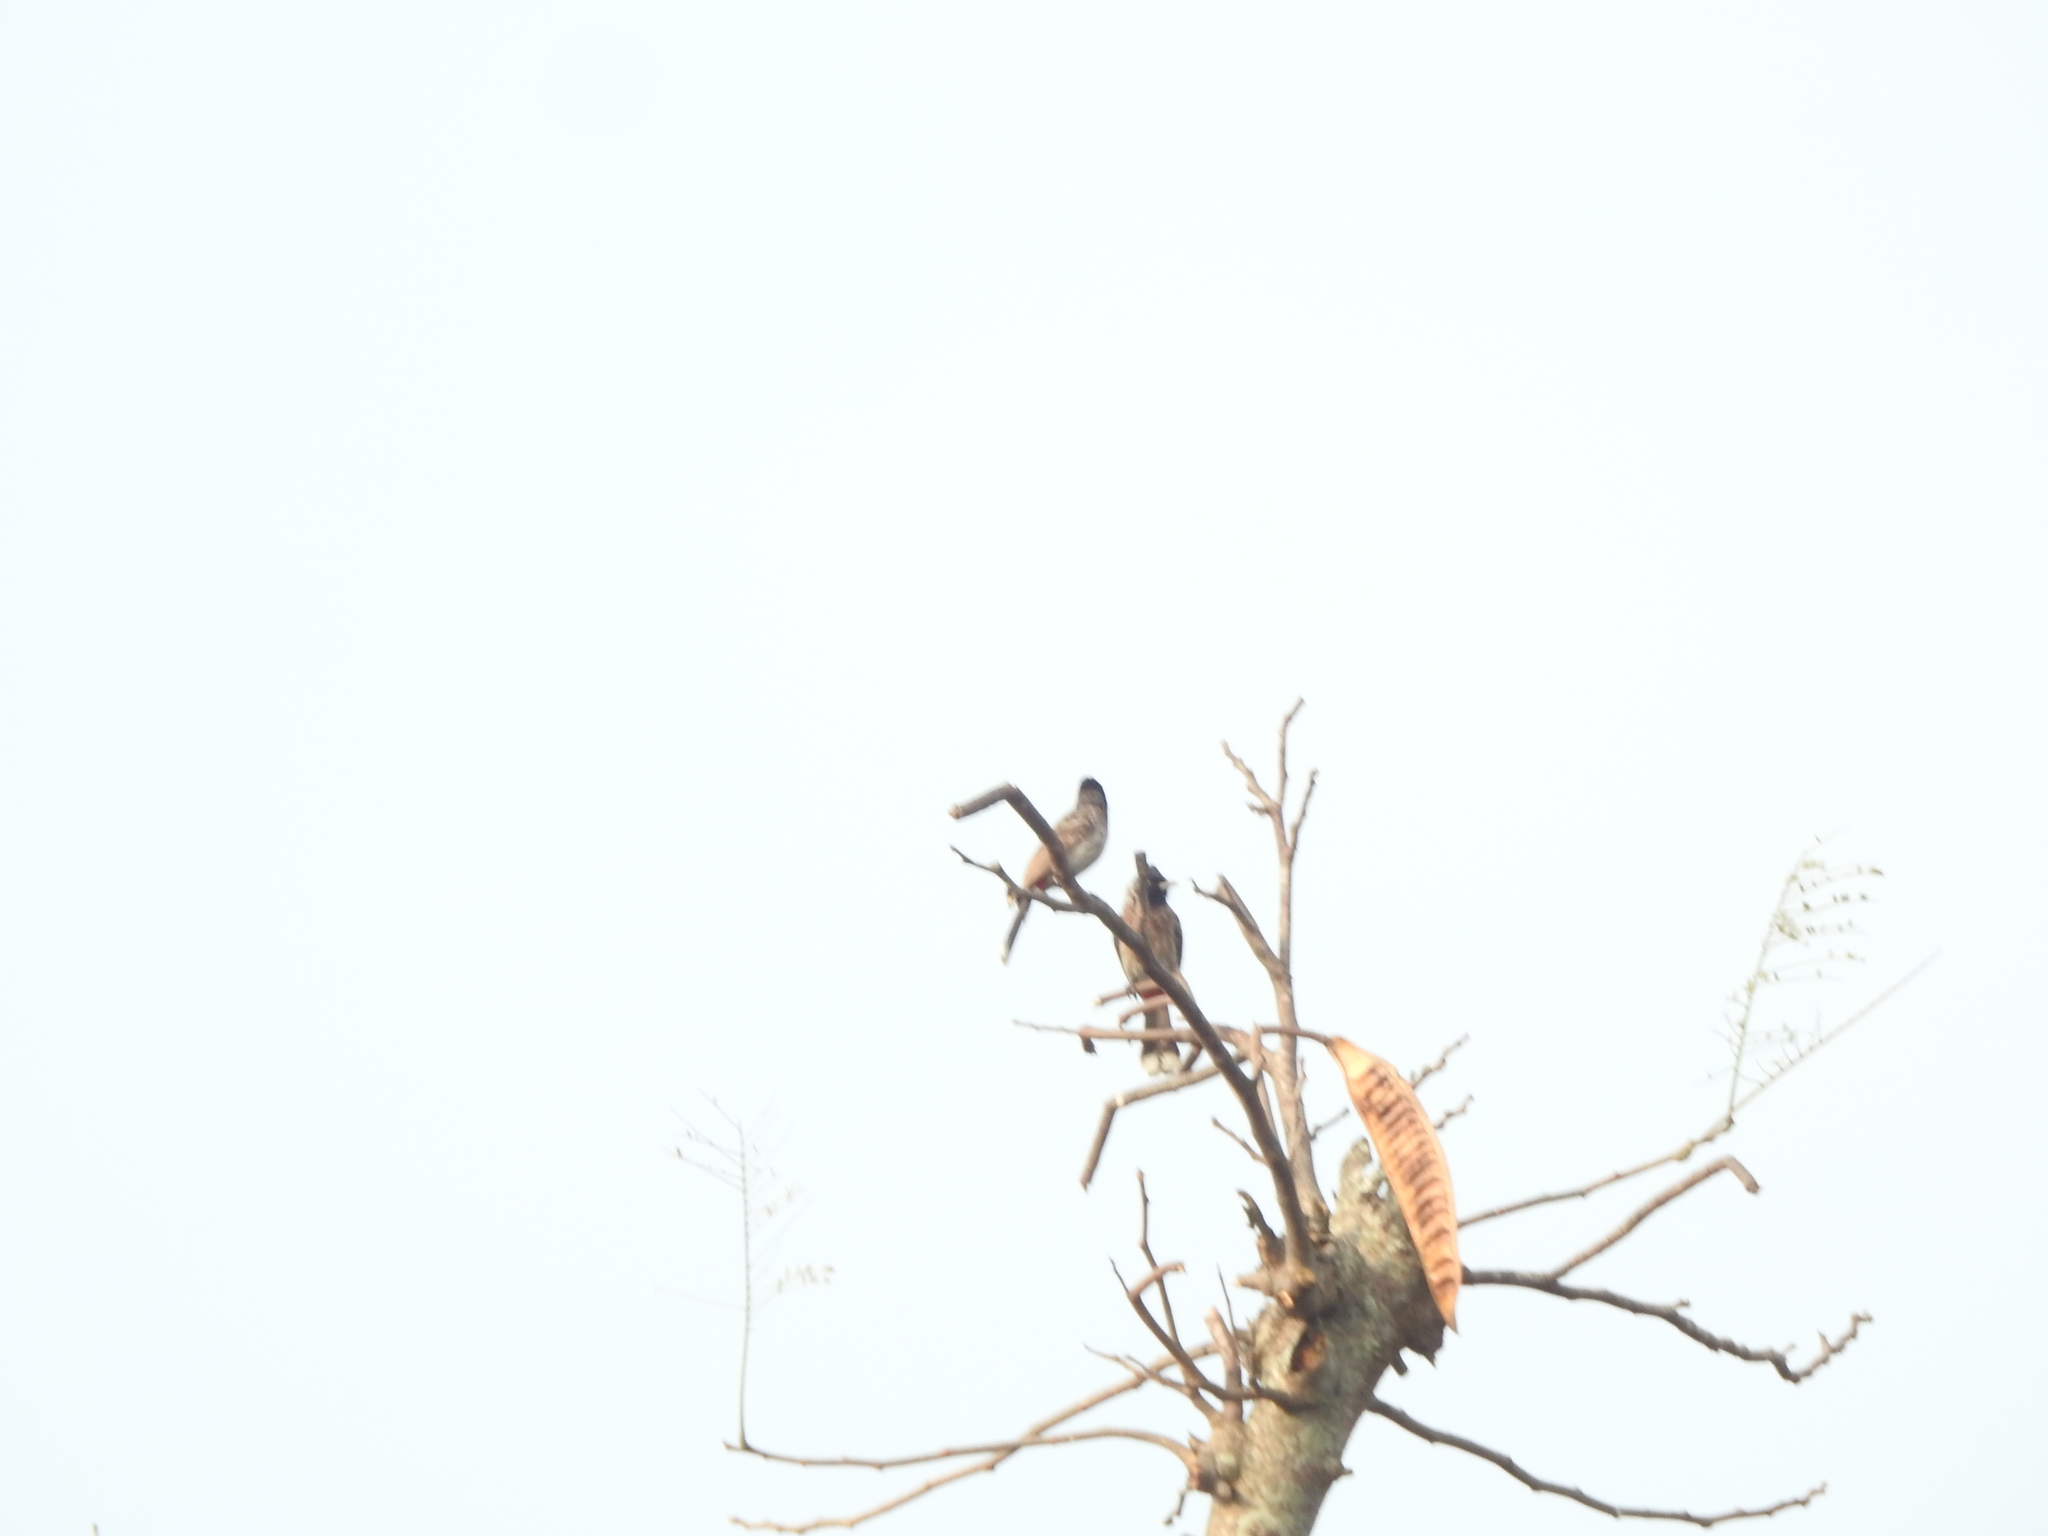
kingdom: Animalia
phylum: Chordata
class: Aves
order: Passeriformes
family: Pycnonotidae
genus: Pycnonotus
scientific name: Pycnonotus cafer
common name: Red-vented bulbul
